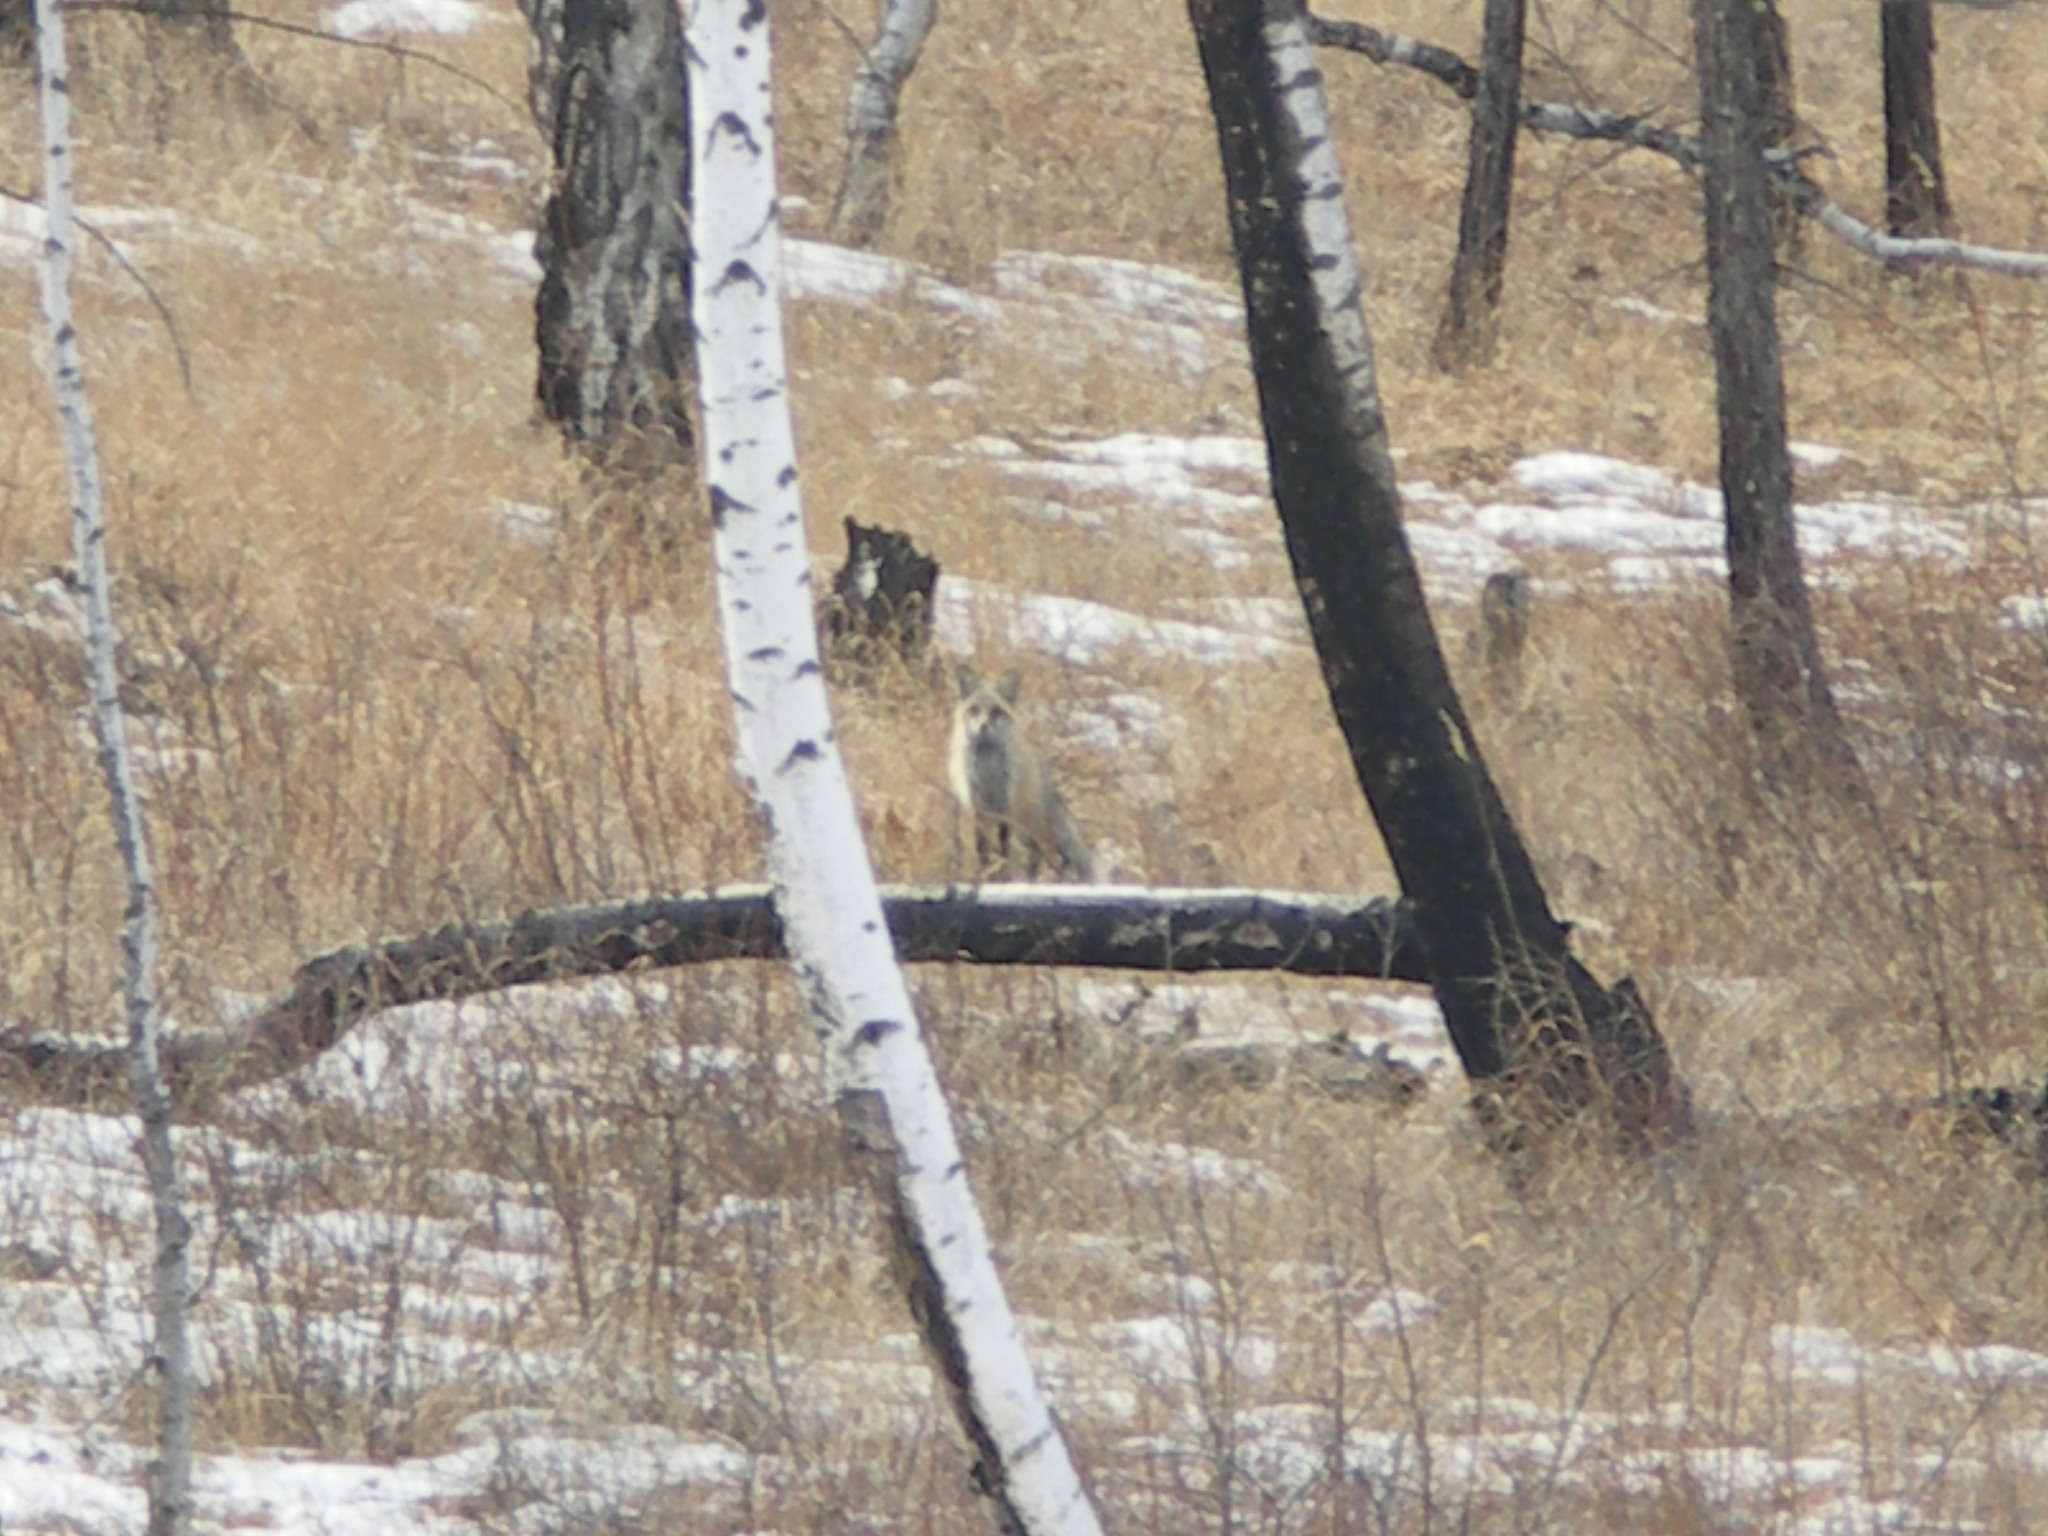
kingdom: Animalia
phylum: Chordata
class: Mammalia
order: Carnivora
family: Canidae
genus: Vulpes
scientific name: Vulpes vulpes
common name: Red fox
